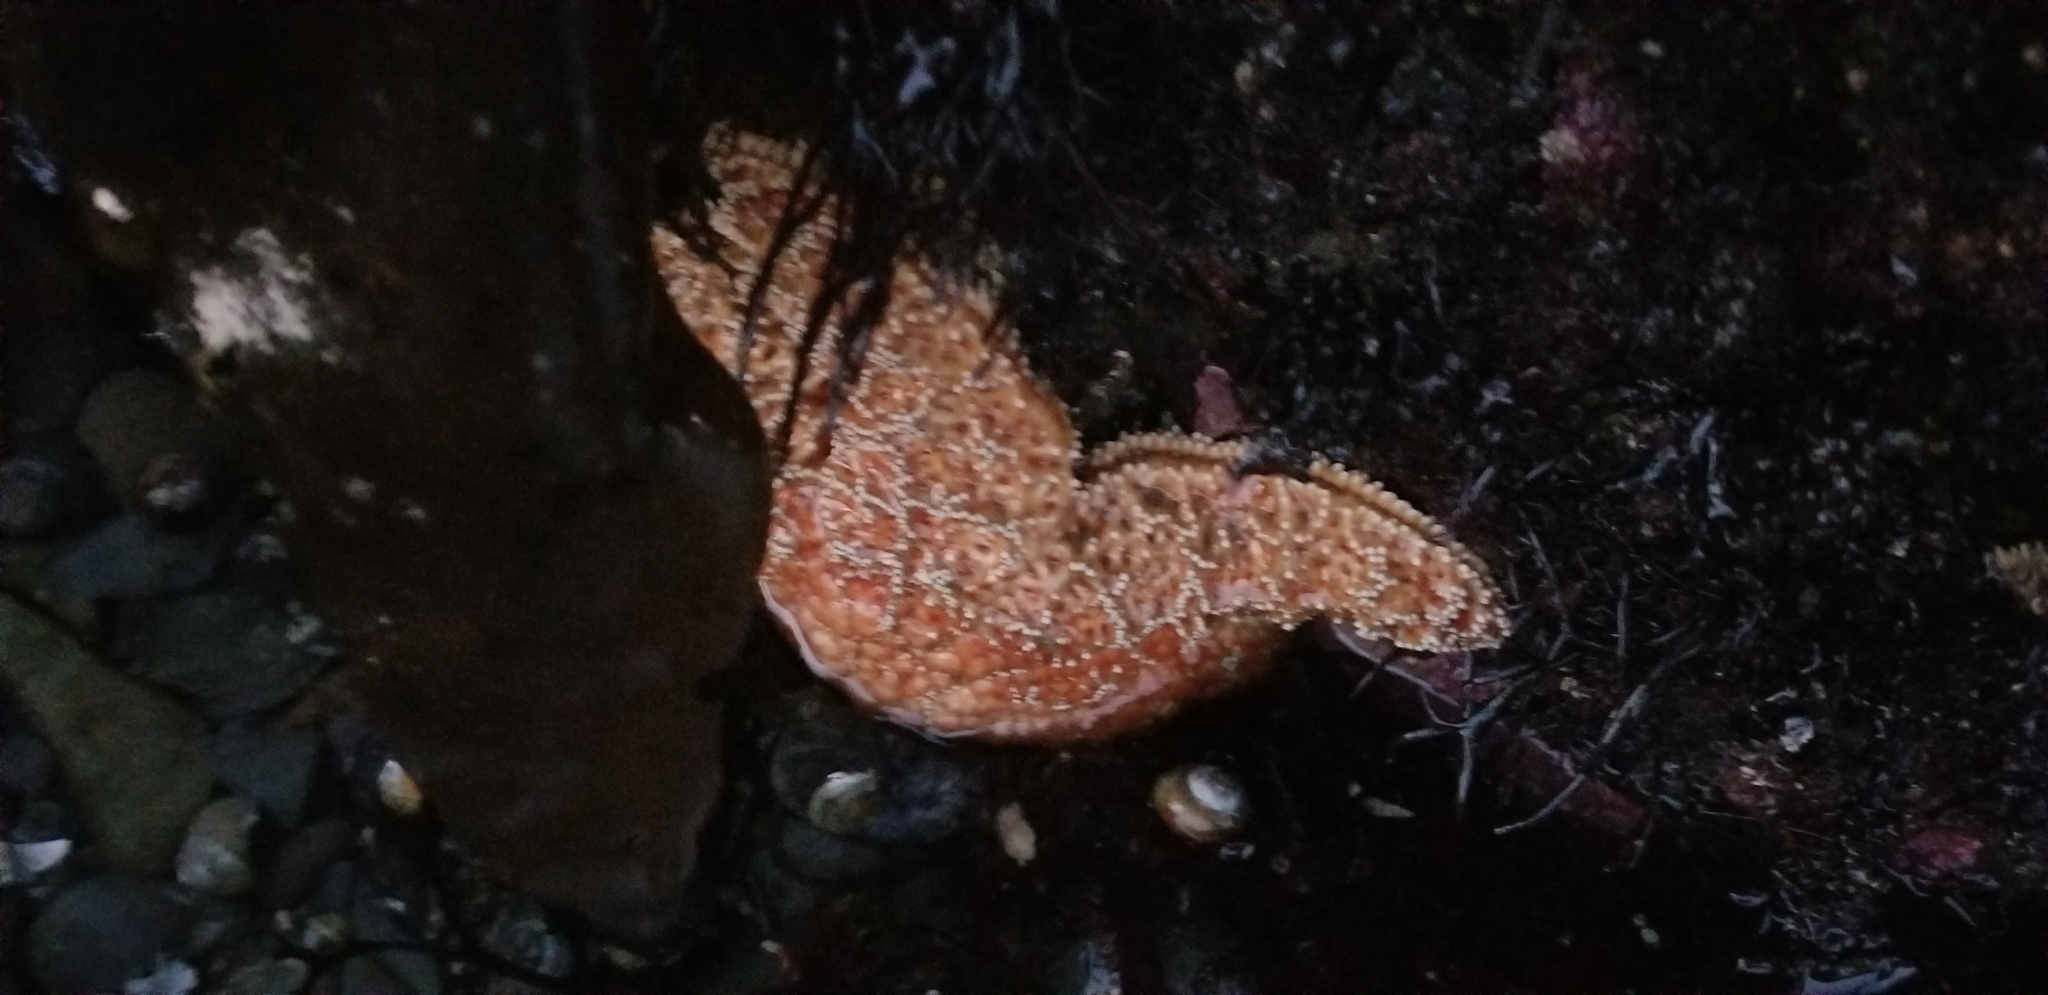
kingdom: Animalia
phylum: Echinodermata
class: Asteroidea
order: Forcipulatida
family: Asteriidae
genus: Pisaster
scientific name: Pisaster ochraceus
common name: Ochre stars
